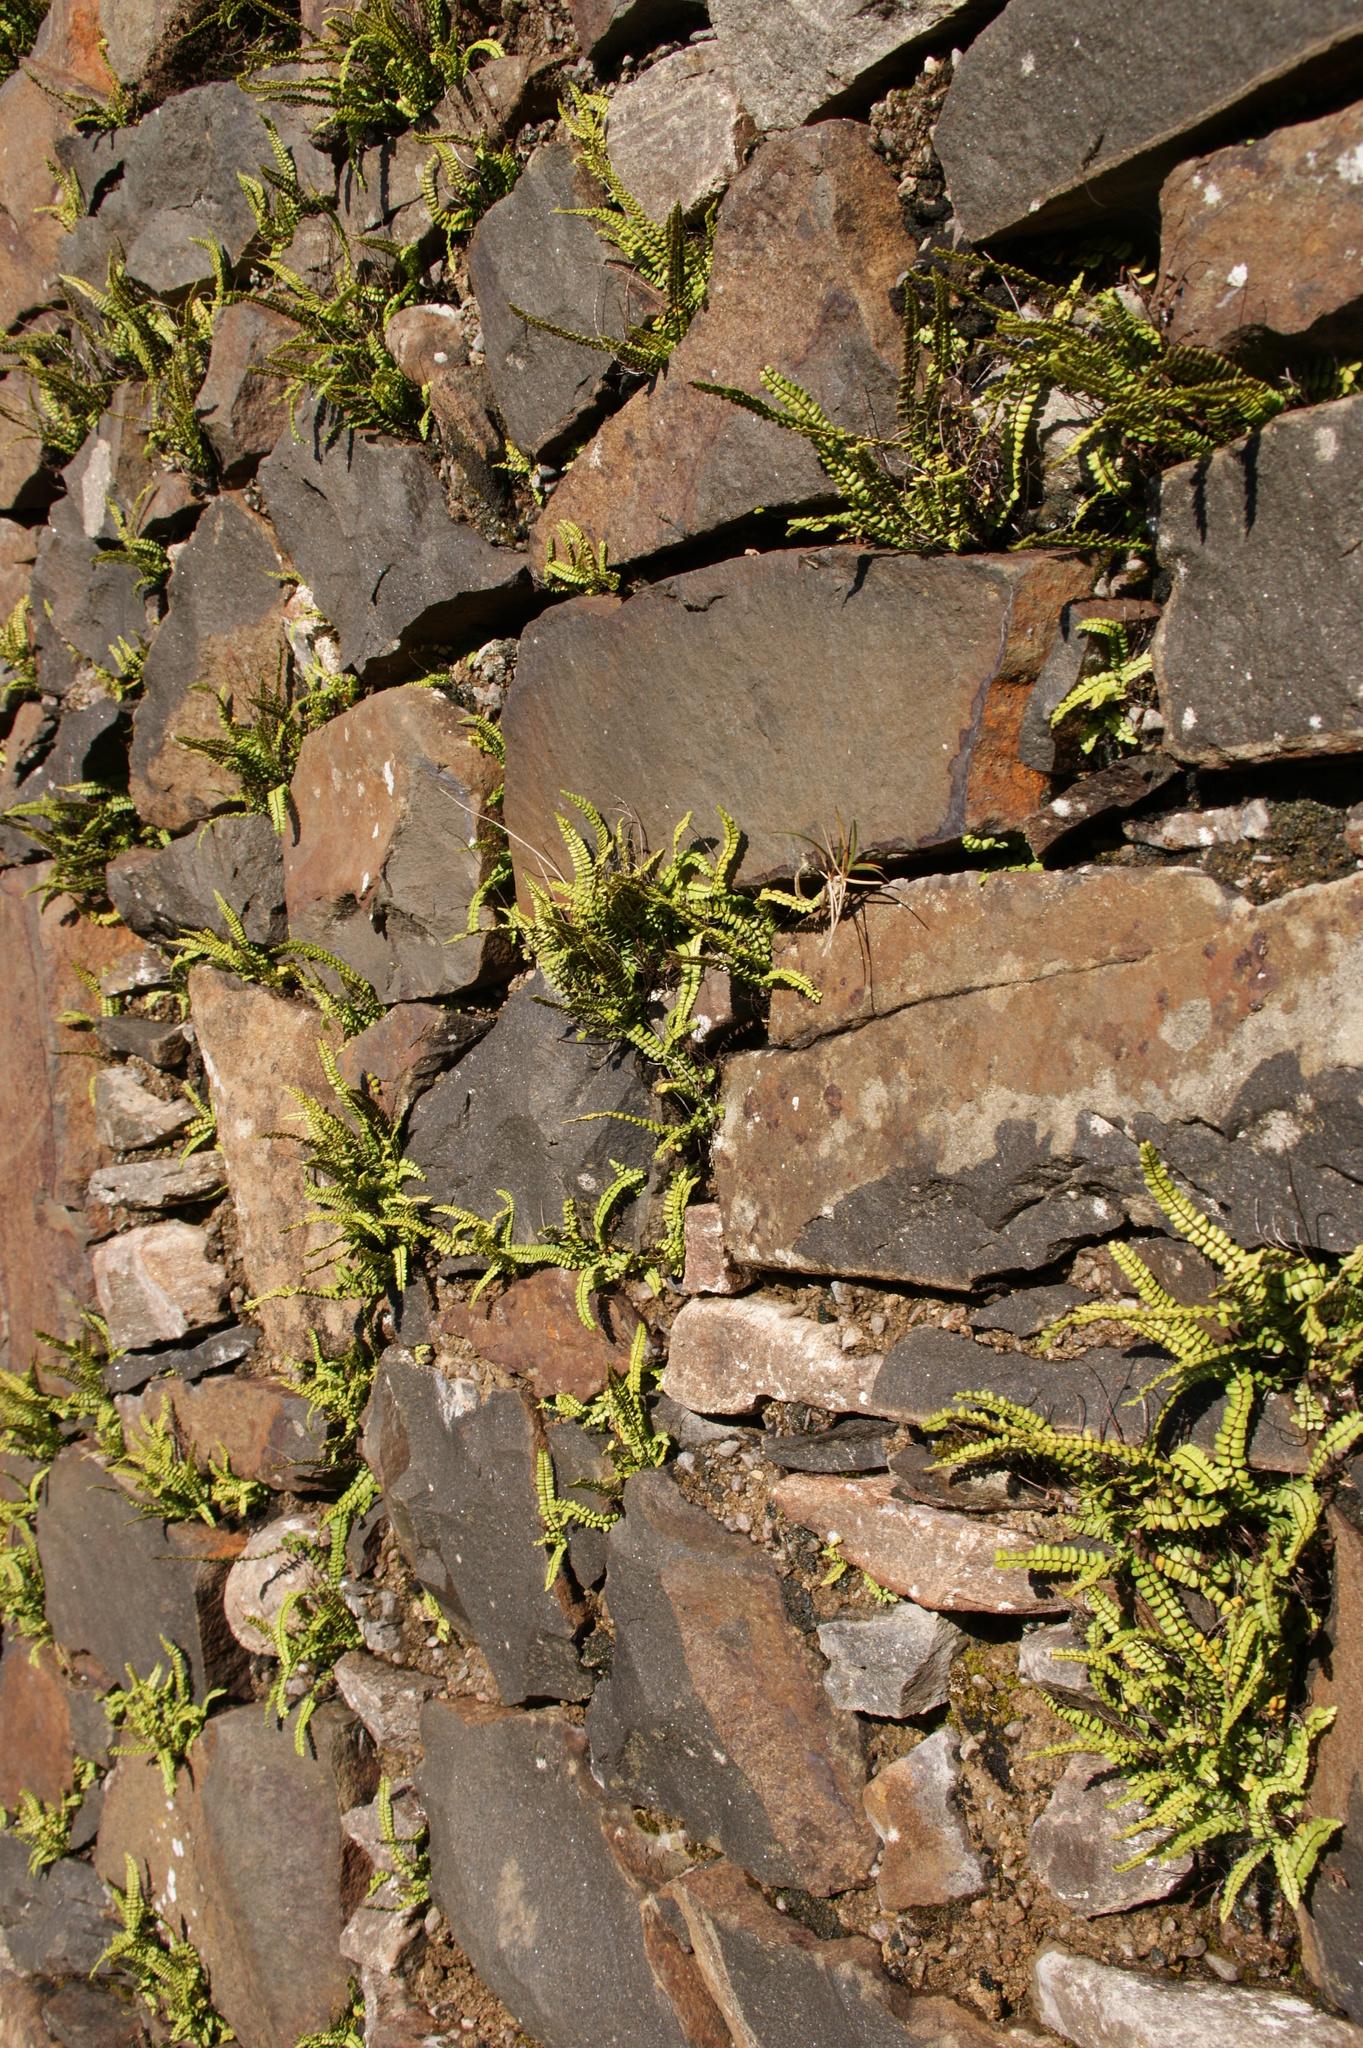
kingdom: Plantae
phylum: Tracheophyta
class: Polypodiopsida
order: Polypodiales
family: Aspleniaceae
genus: Asplenium
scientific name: Asplenium trichomanes
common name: Maidenhair spleenwort
